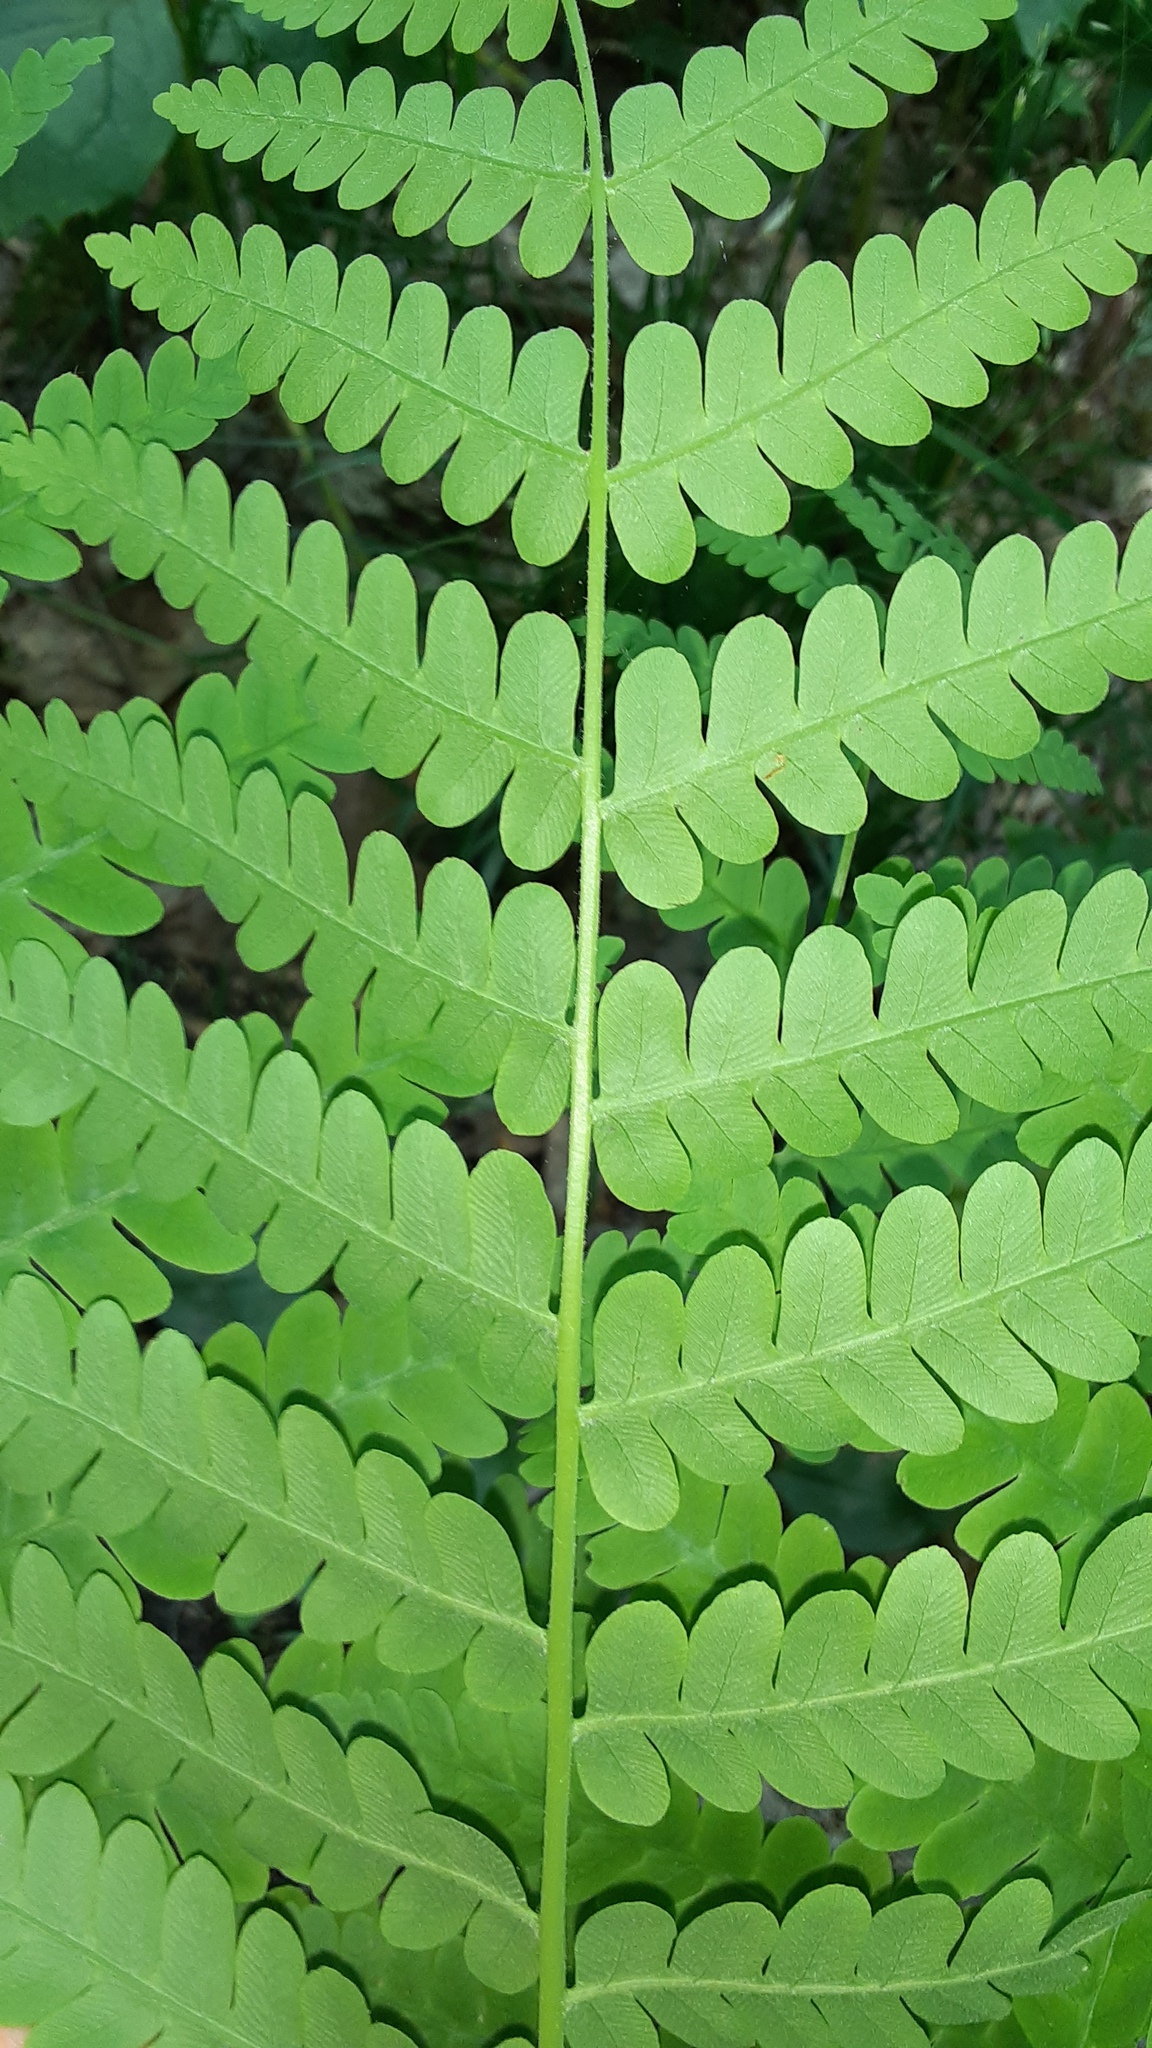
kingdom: Plantae
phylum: Tracheophyta
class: Polypodiopsida
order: Osmundales
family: Osmundaceae
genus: Claytosmunda
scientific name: Claytosmunda claytoniana
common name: Clayton's fern
